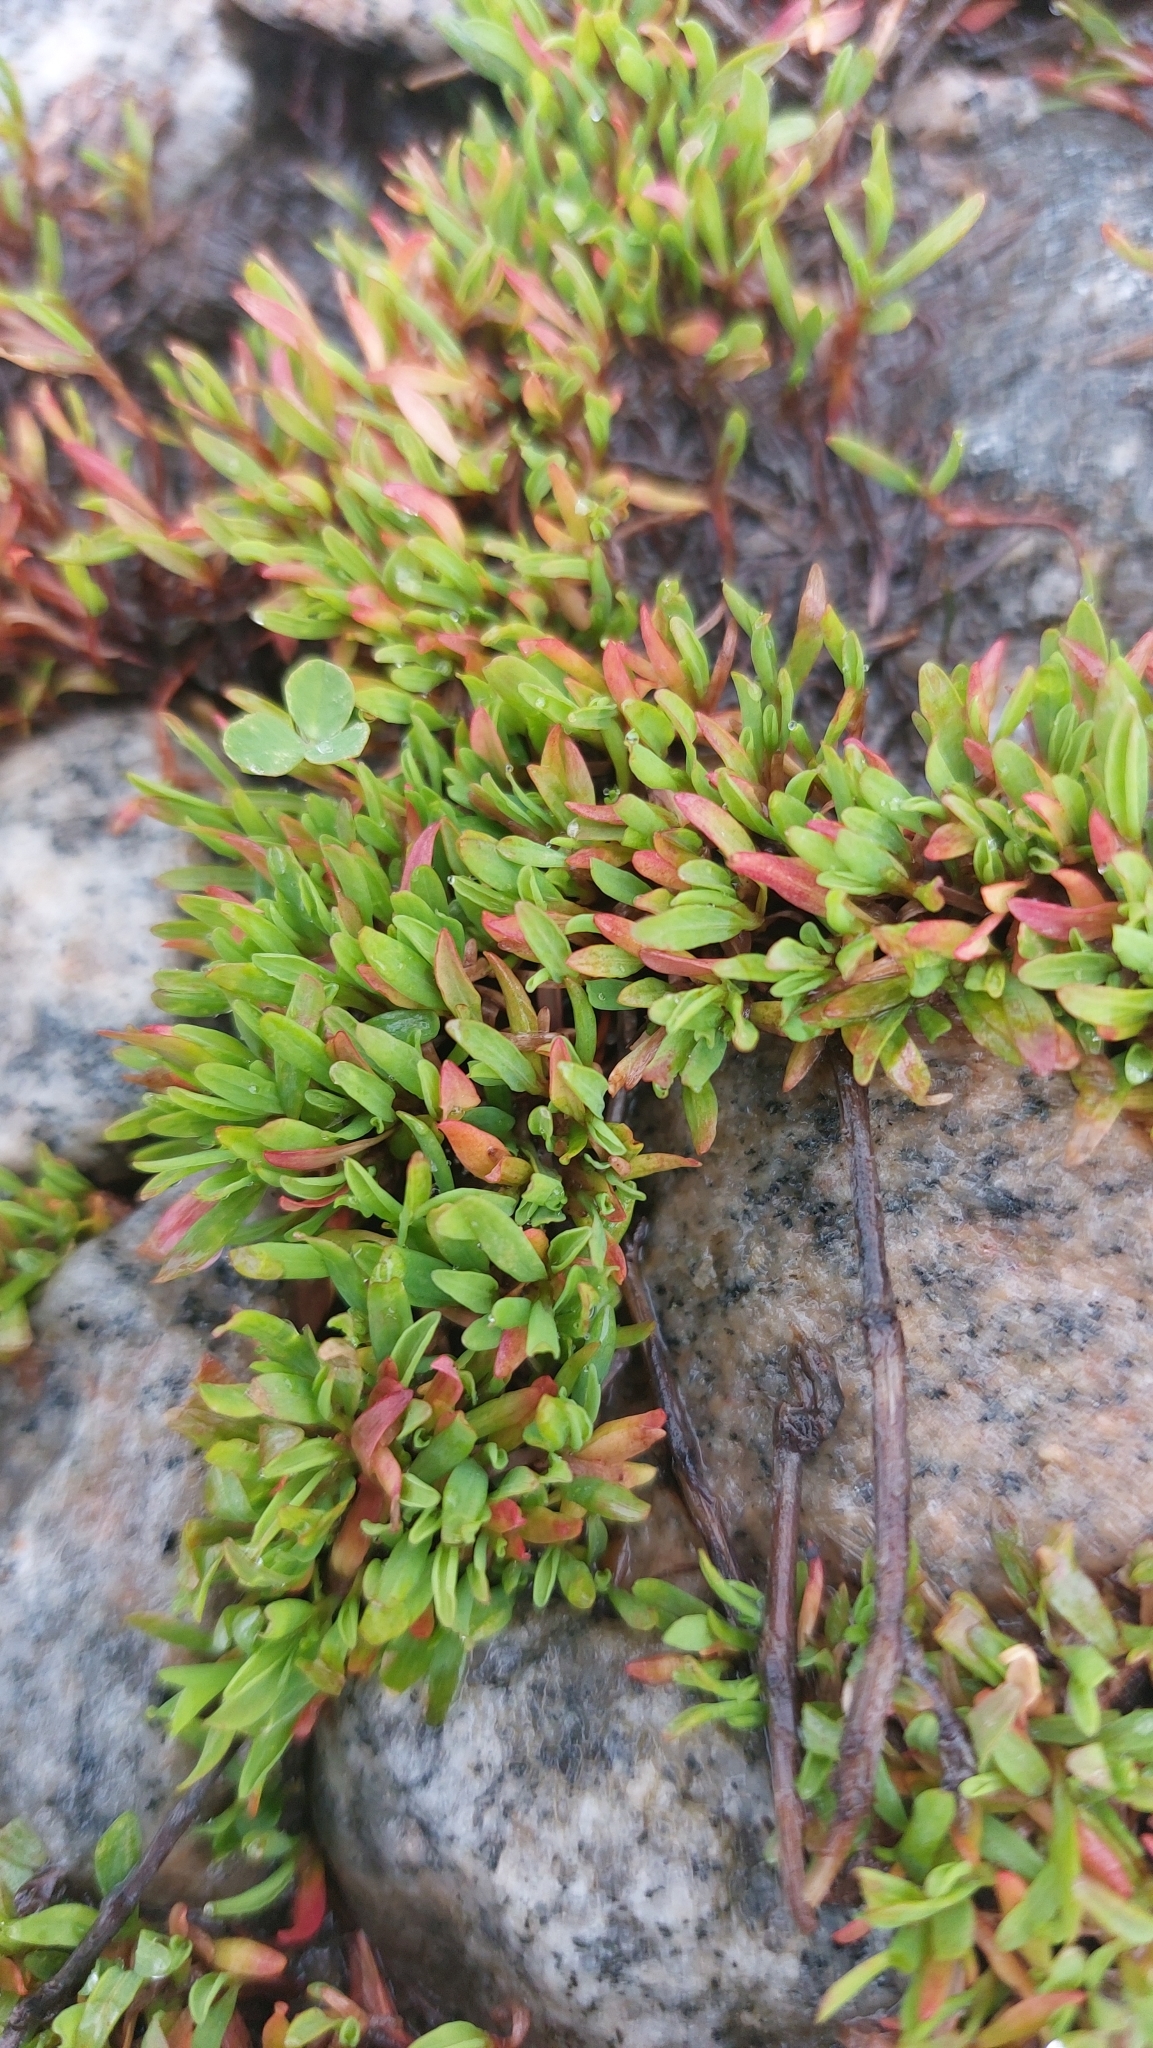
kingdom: Plantae
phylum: Tracheophyta
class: Magnoliopsida
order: Caryophyllales
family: Polygonaceae
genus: Polygonum
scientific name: Polygonum
